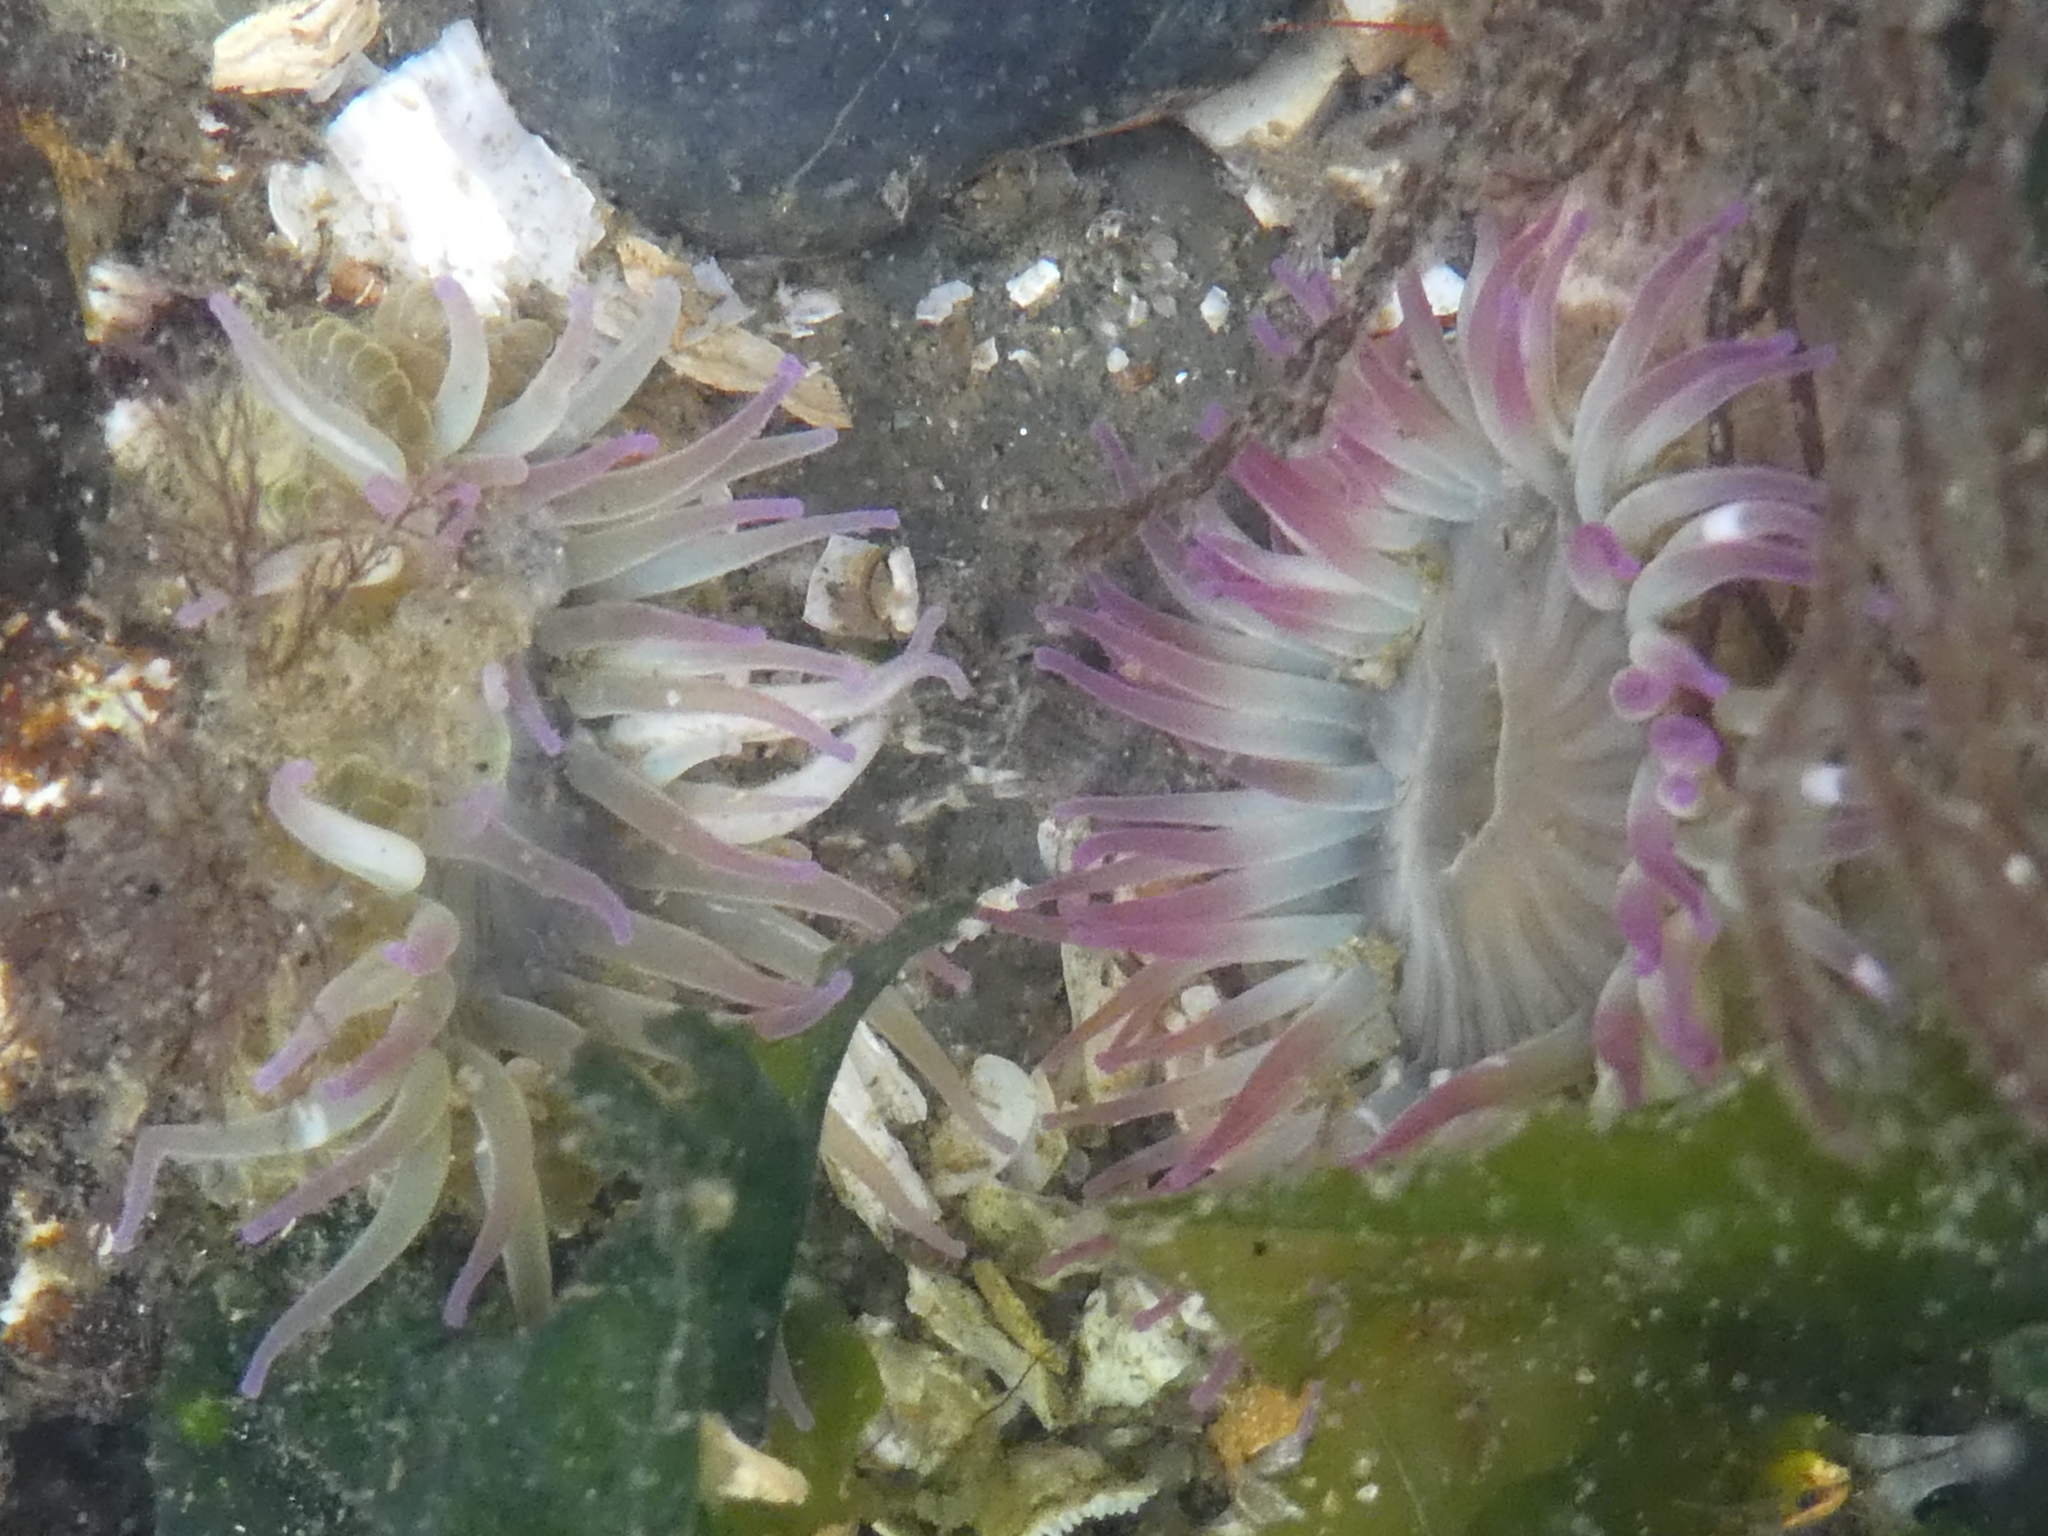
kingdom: Animalia
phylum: Cnidaria
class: Anthozoa
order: Actiniaria
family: Actiniidae
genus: Anthopleura
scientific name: Anthopleura elegantissima
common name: Clonal anemone
